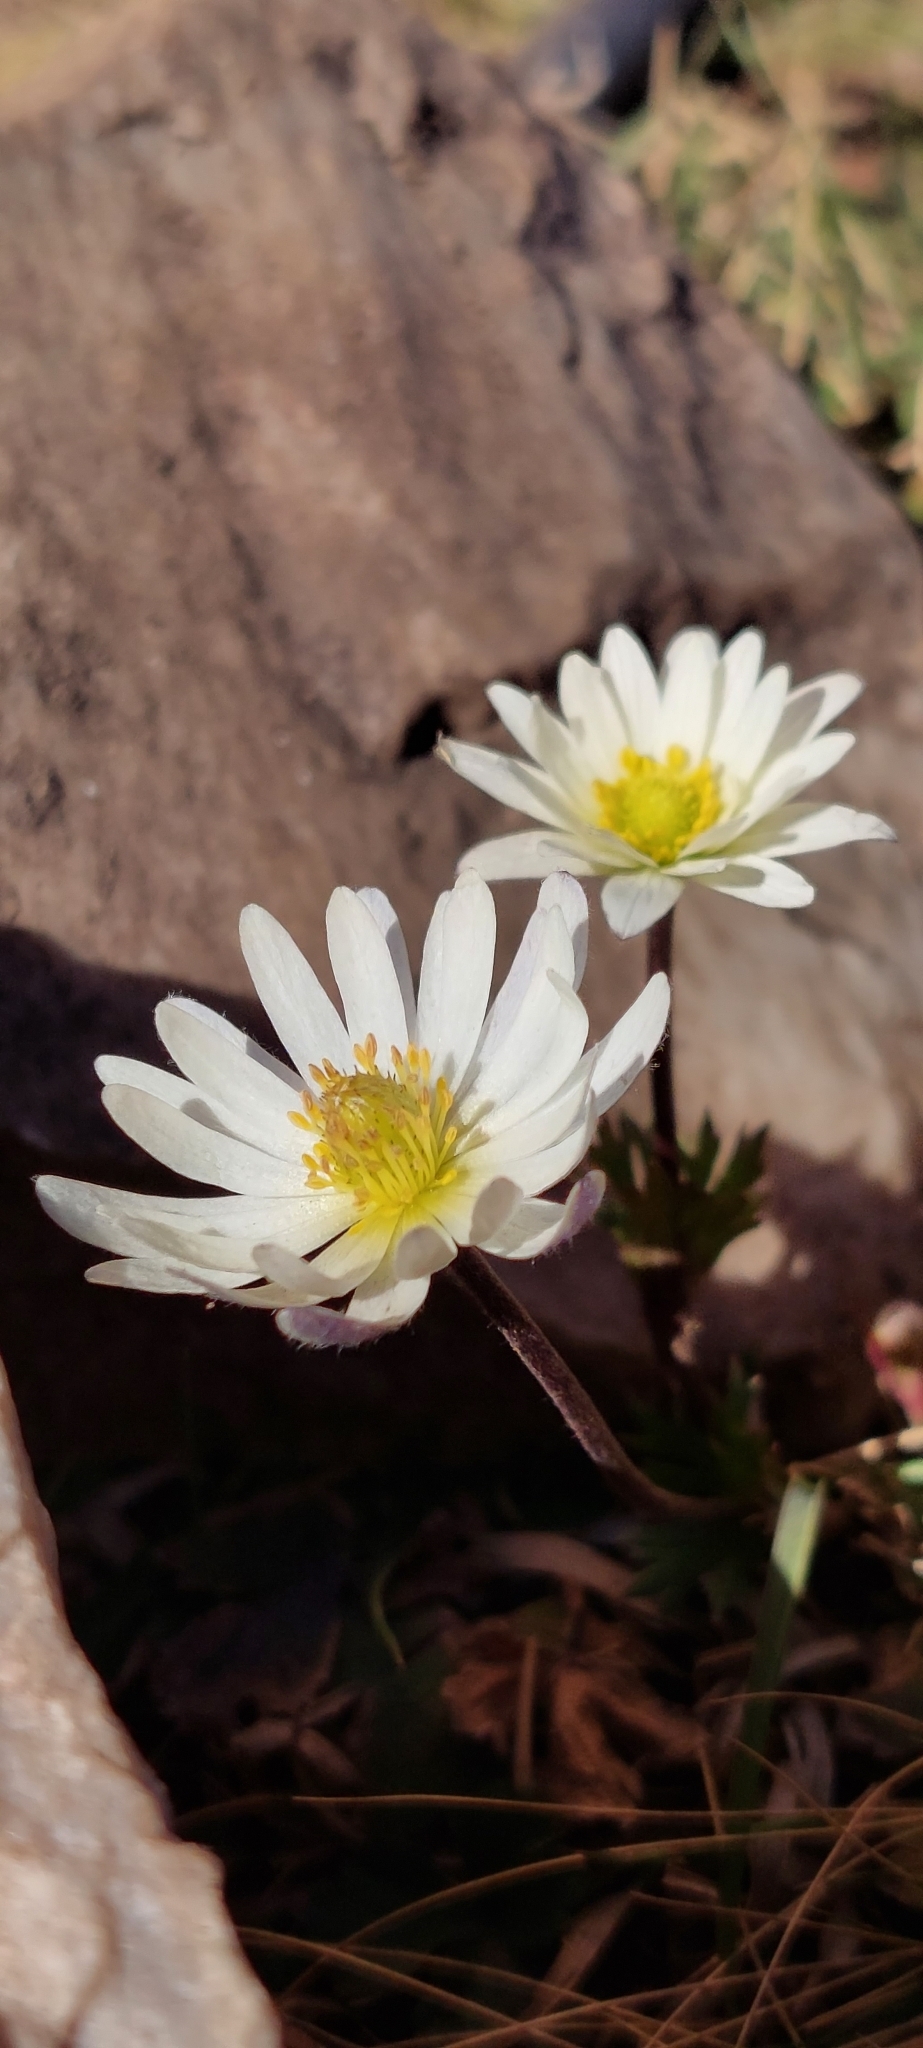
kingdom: Plantae
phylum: Tracheophyta
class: Magnoliopsida
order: Ranunculales
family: Ranunculaceae
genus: Anemone
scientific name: Anemone decapetala
